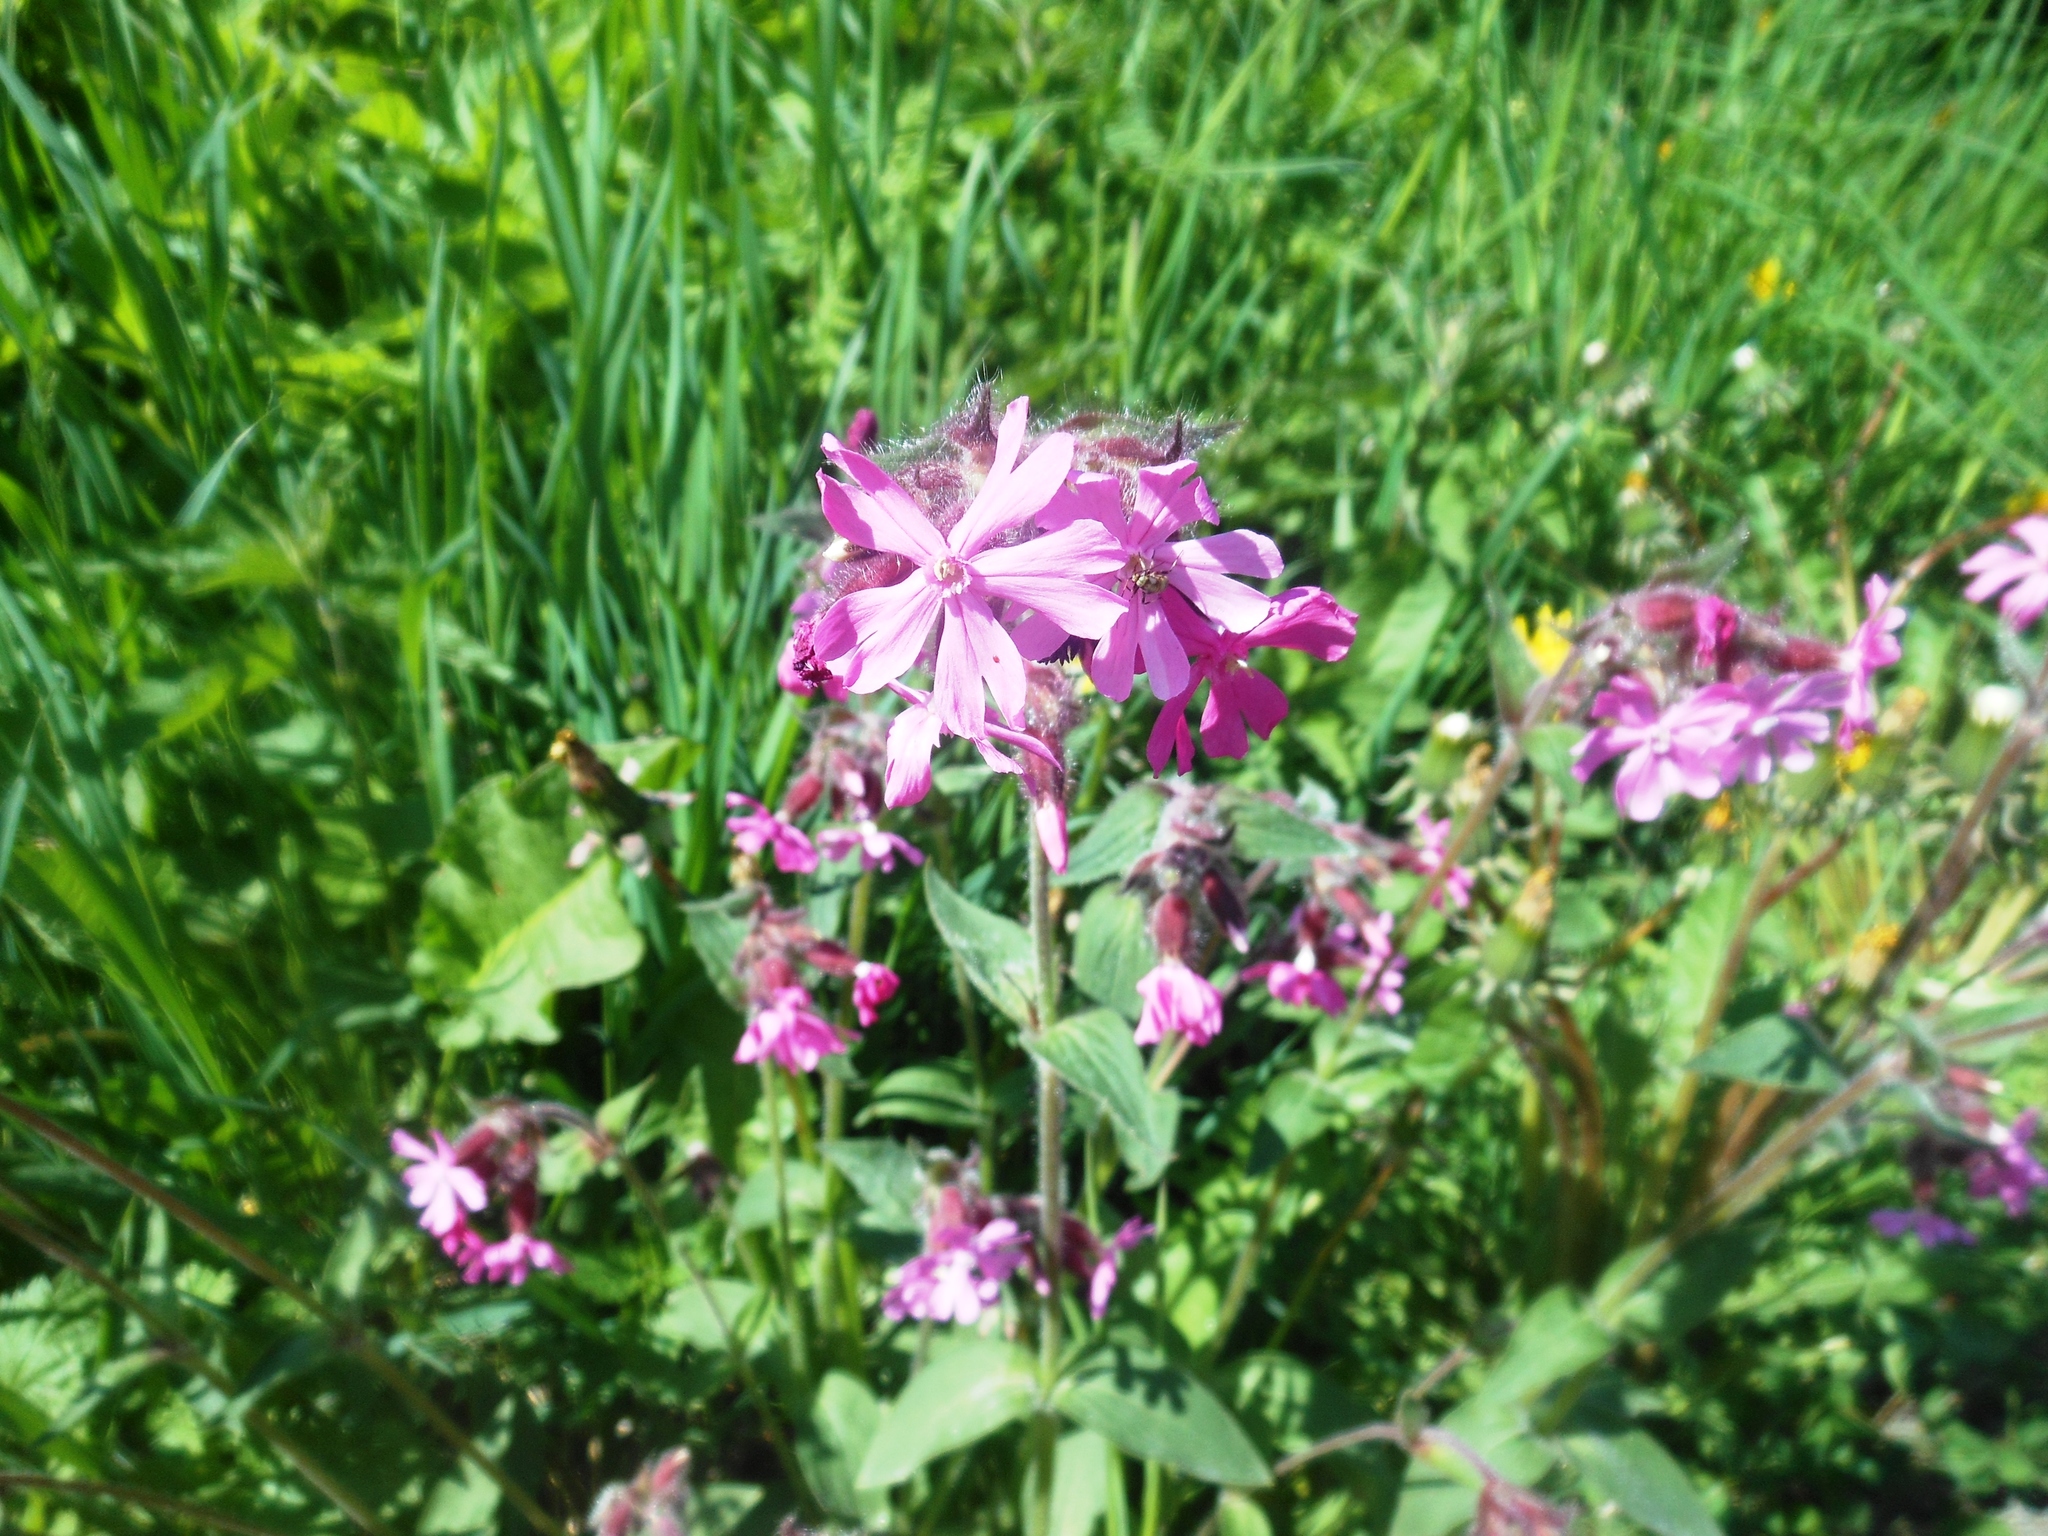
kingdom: Plantae
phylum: Tracheophyta
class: Magnoliopsida
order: Caryophyllales
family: Caryophyllaceae
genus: Silene
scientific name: Silene dioica
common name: Red campion
